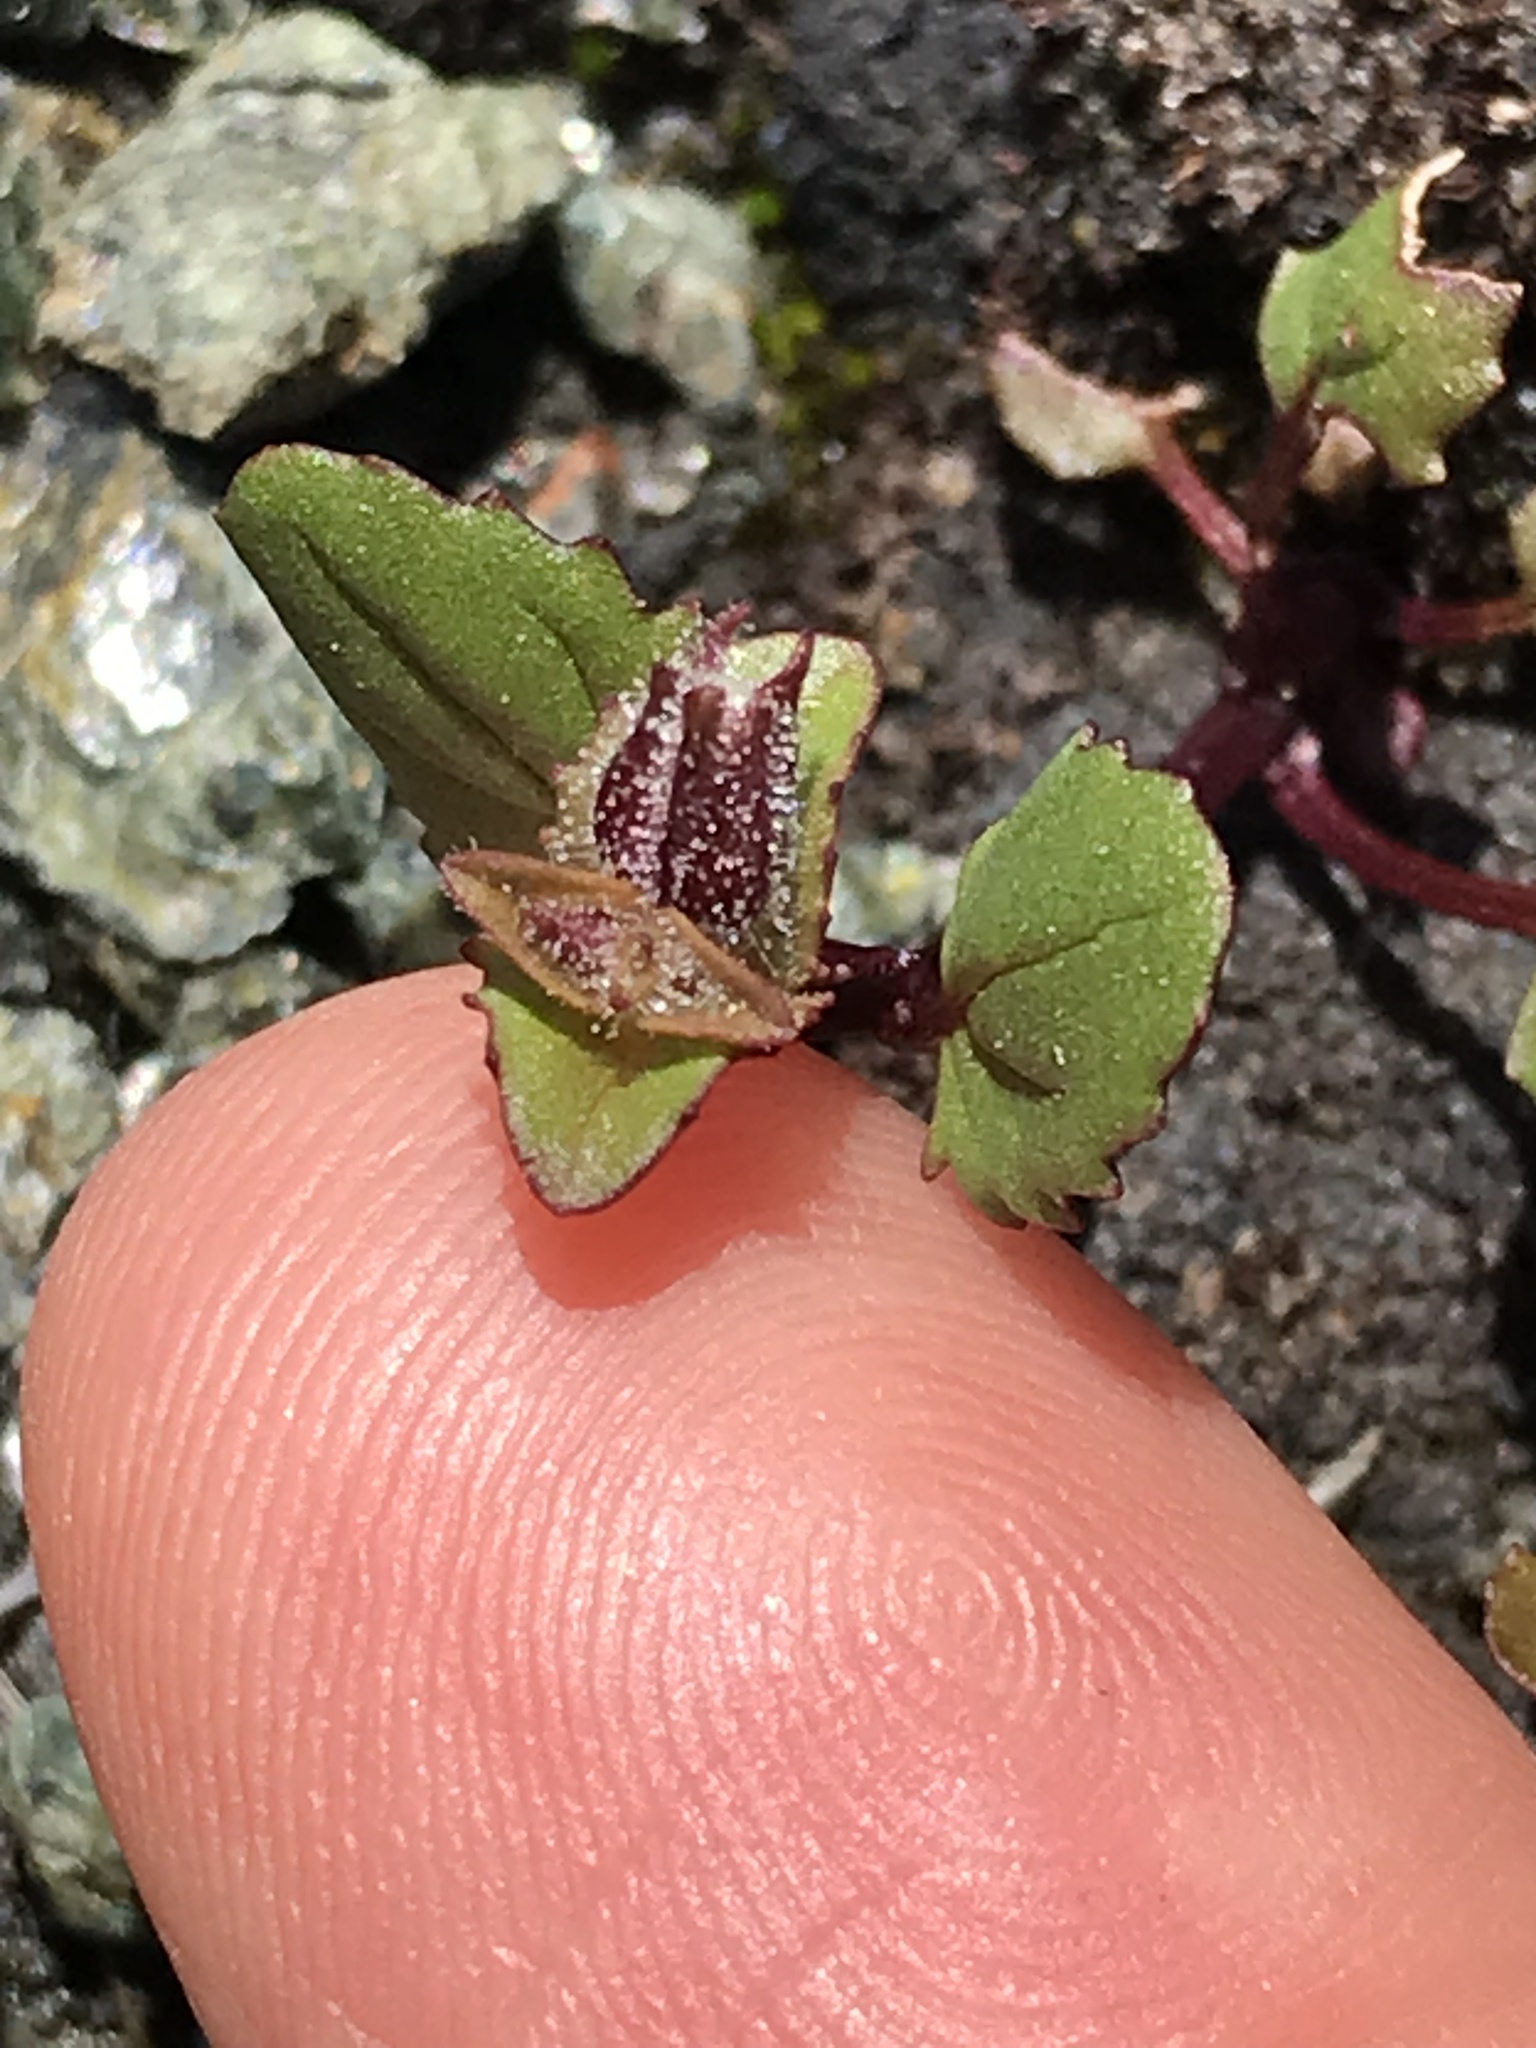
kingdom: Plantae
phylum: Tracheophyta
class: Magnoliopsida
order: Lamiales
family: Phrymaceae
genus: Erythranthe
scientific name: Erythranthe microphylla
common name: Bentham's monkeyflower
